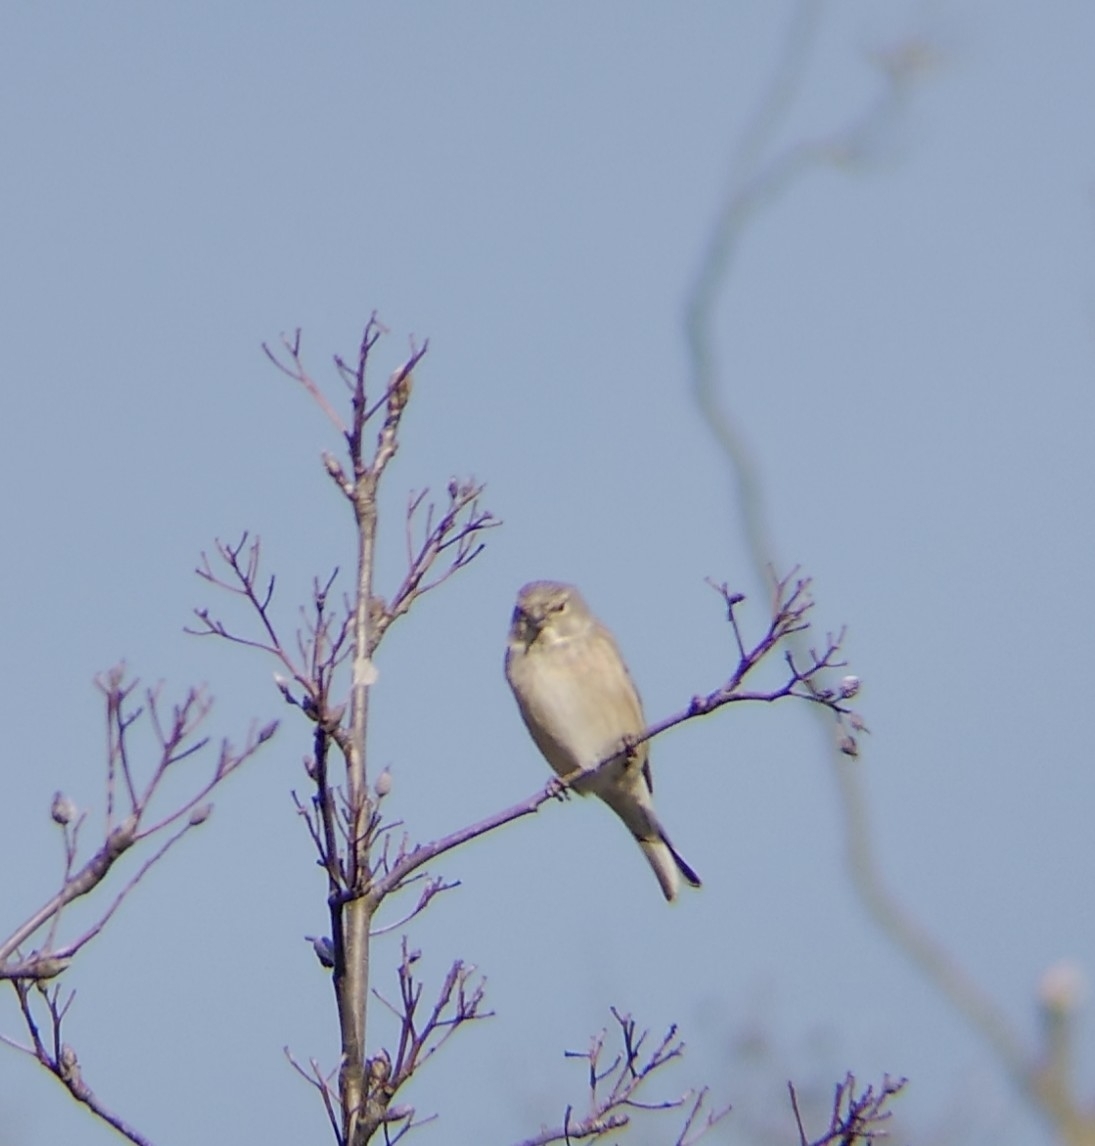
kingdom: Animalia
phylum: Chordata
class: Aves
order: Passeriformes
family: Fringillidae
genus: Linaria
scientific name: Linaria cannabina
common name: Common linnet
